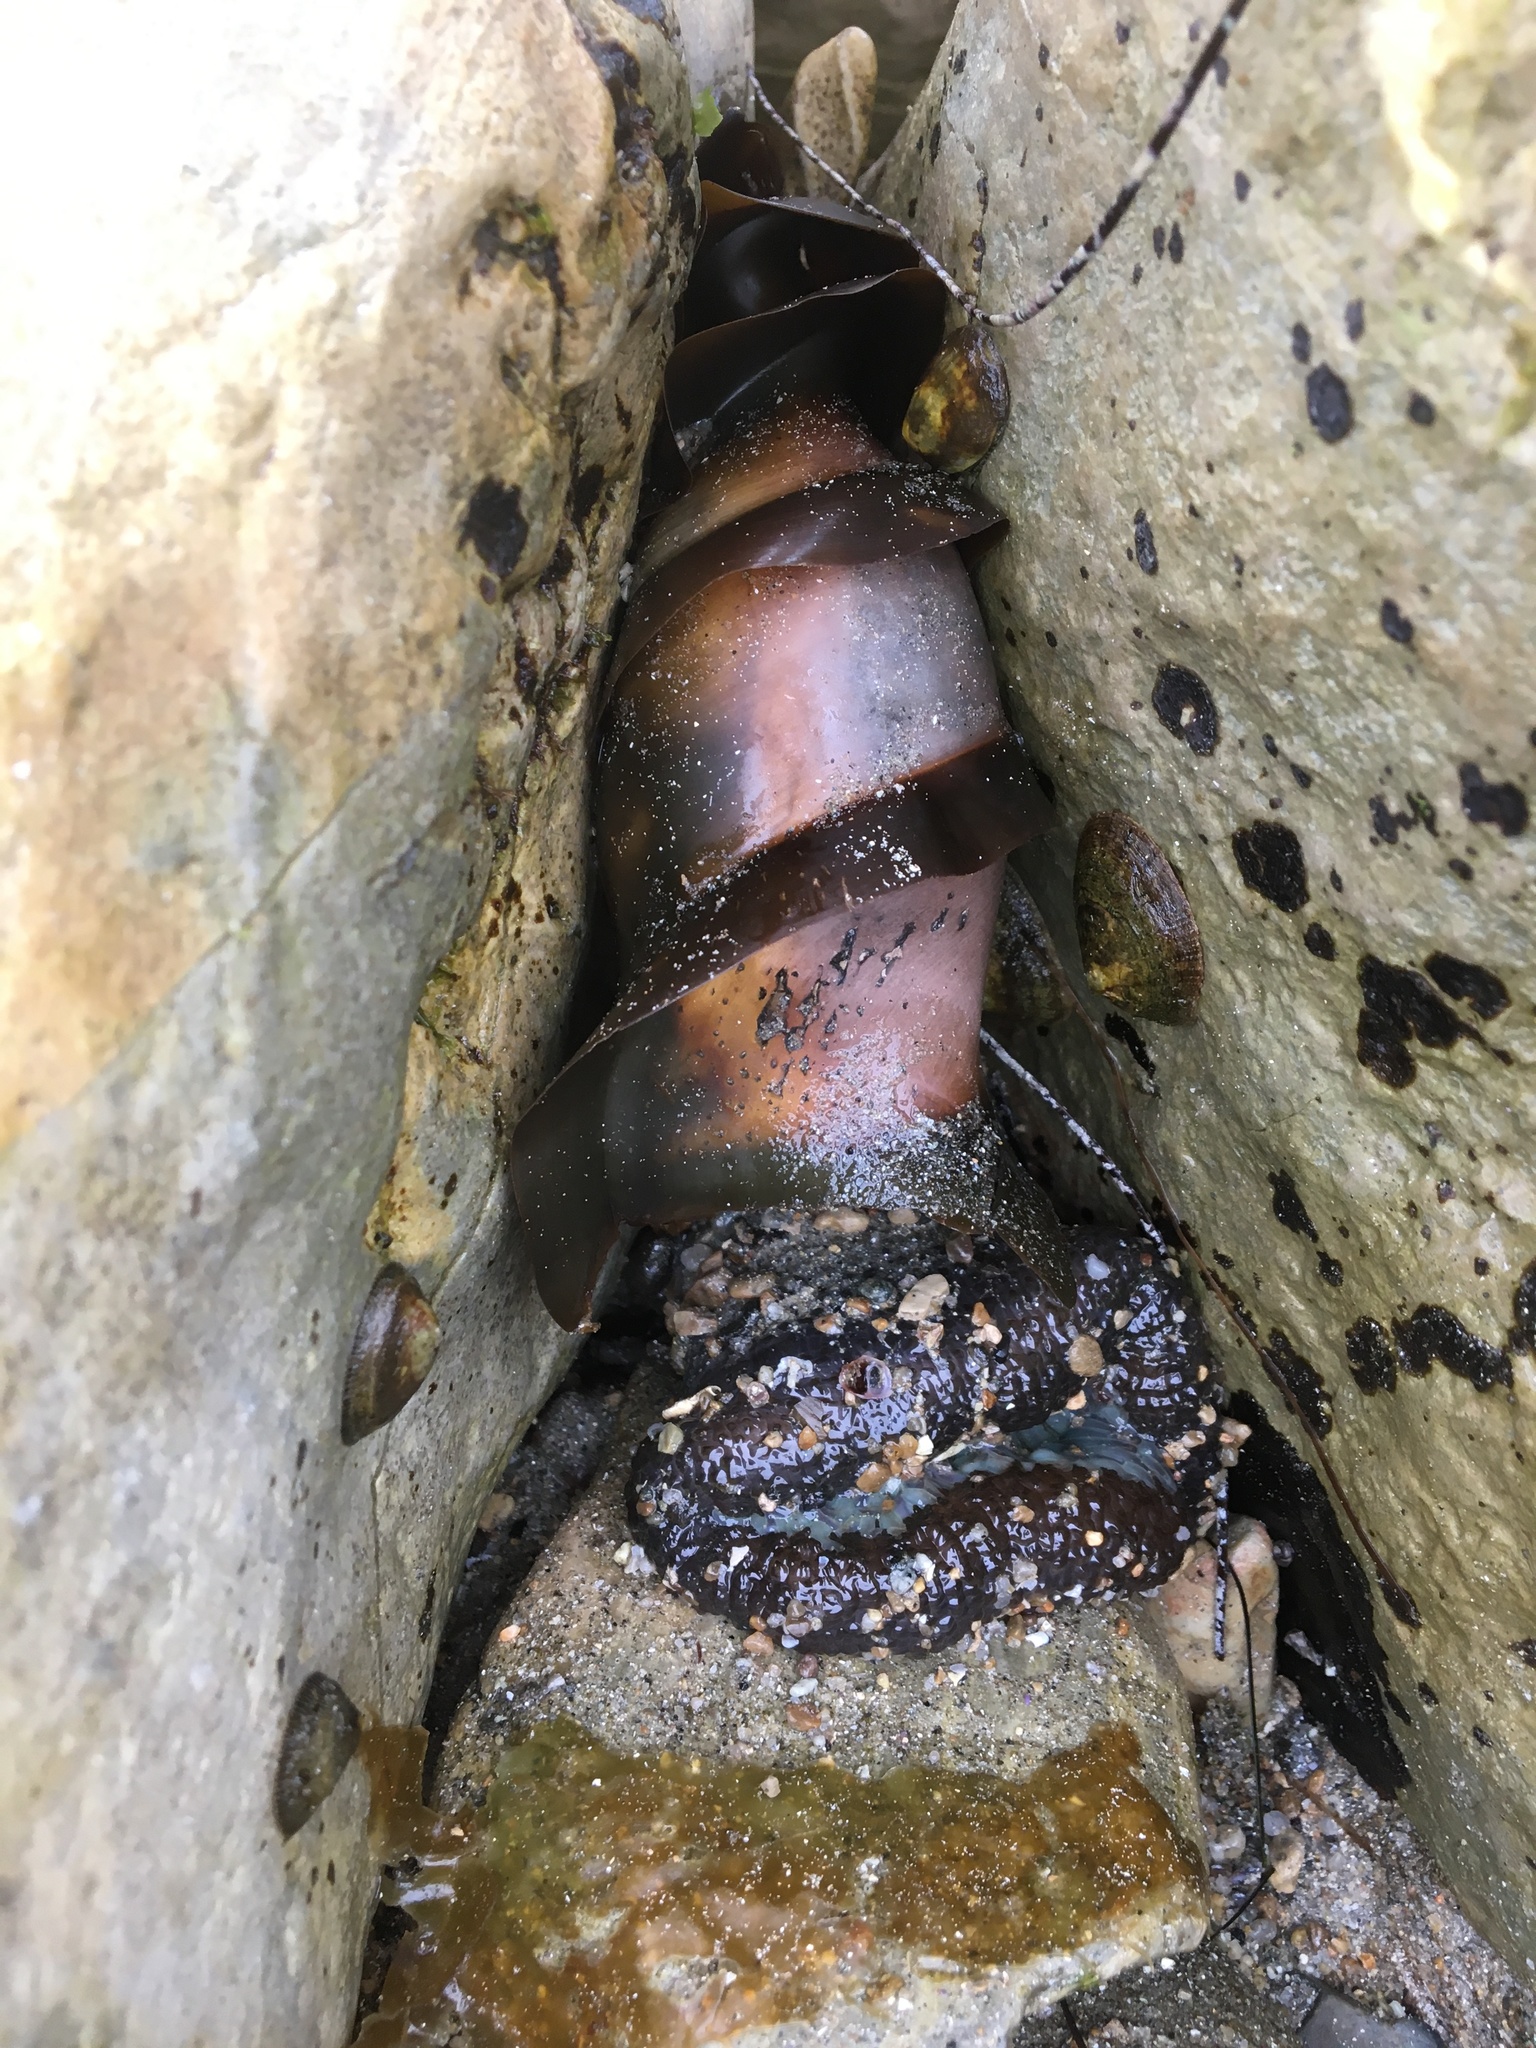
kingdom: Animalia
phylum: Chordata
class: Elasmobranchii
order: Heterodontiformes
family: Heterodontidae
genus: Heterodontus
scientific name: Heterodontus francisci
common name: Horn shark
